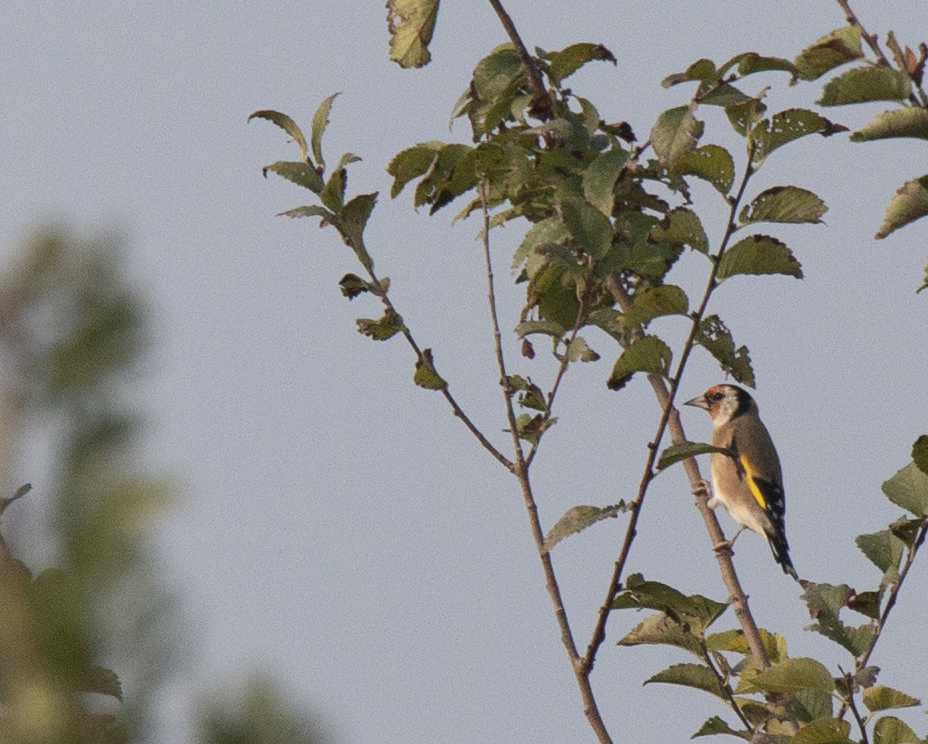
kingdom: Animalia
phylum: Chordata
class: Aves
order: Passeriformes
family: Fringillidae
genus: Carduelis
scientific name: Carduelis carduelis
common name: European goldfinch
